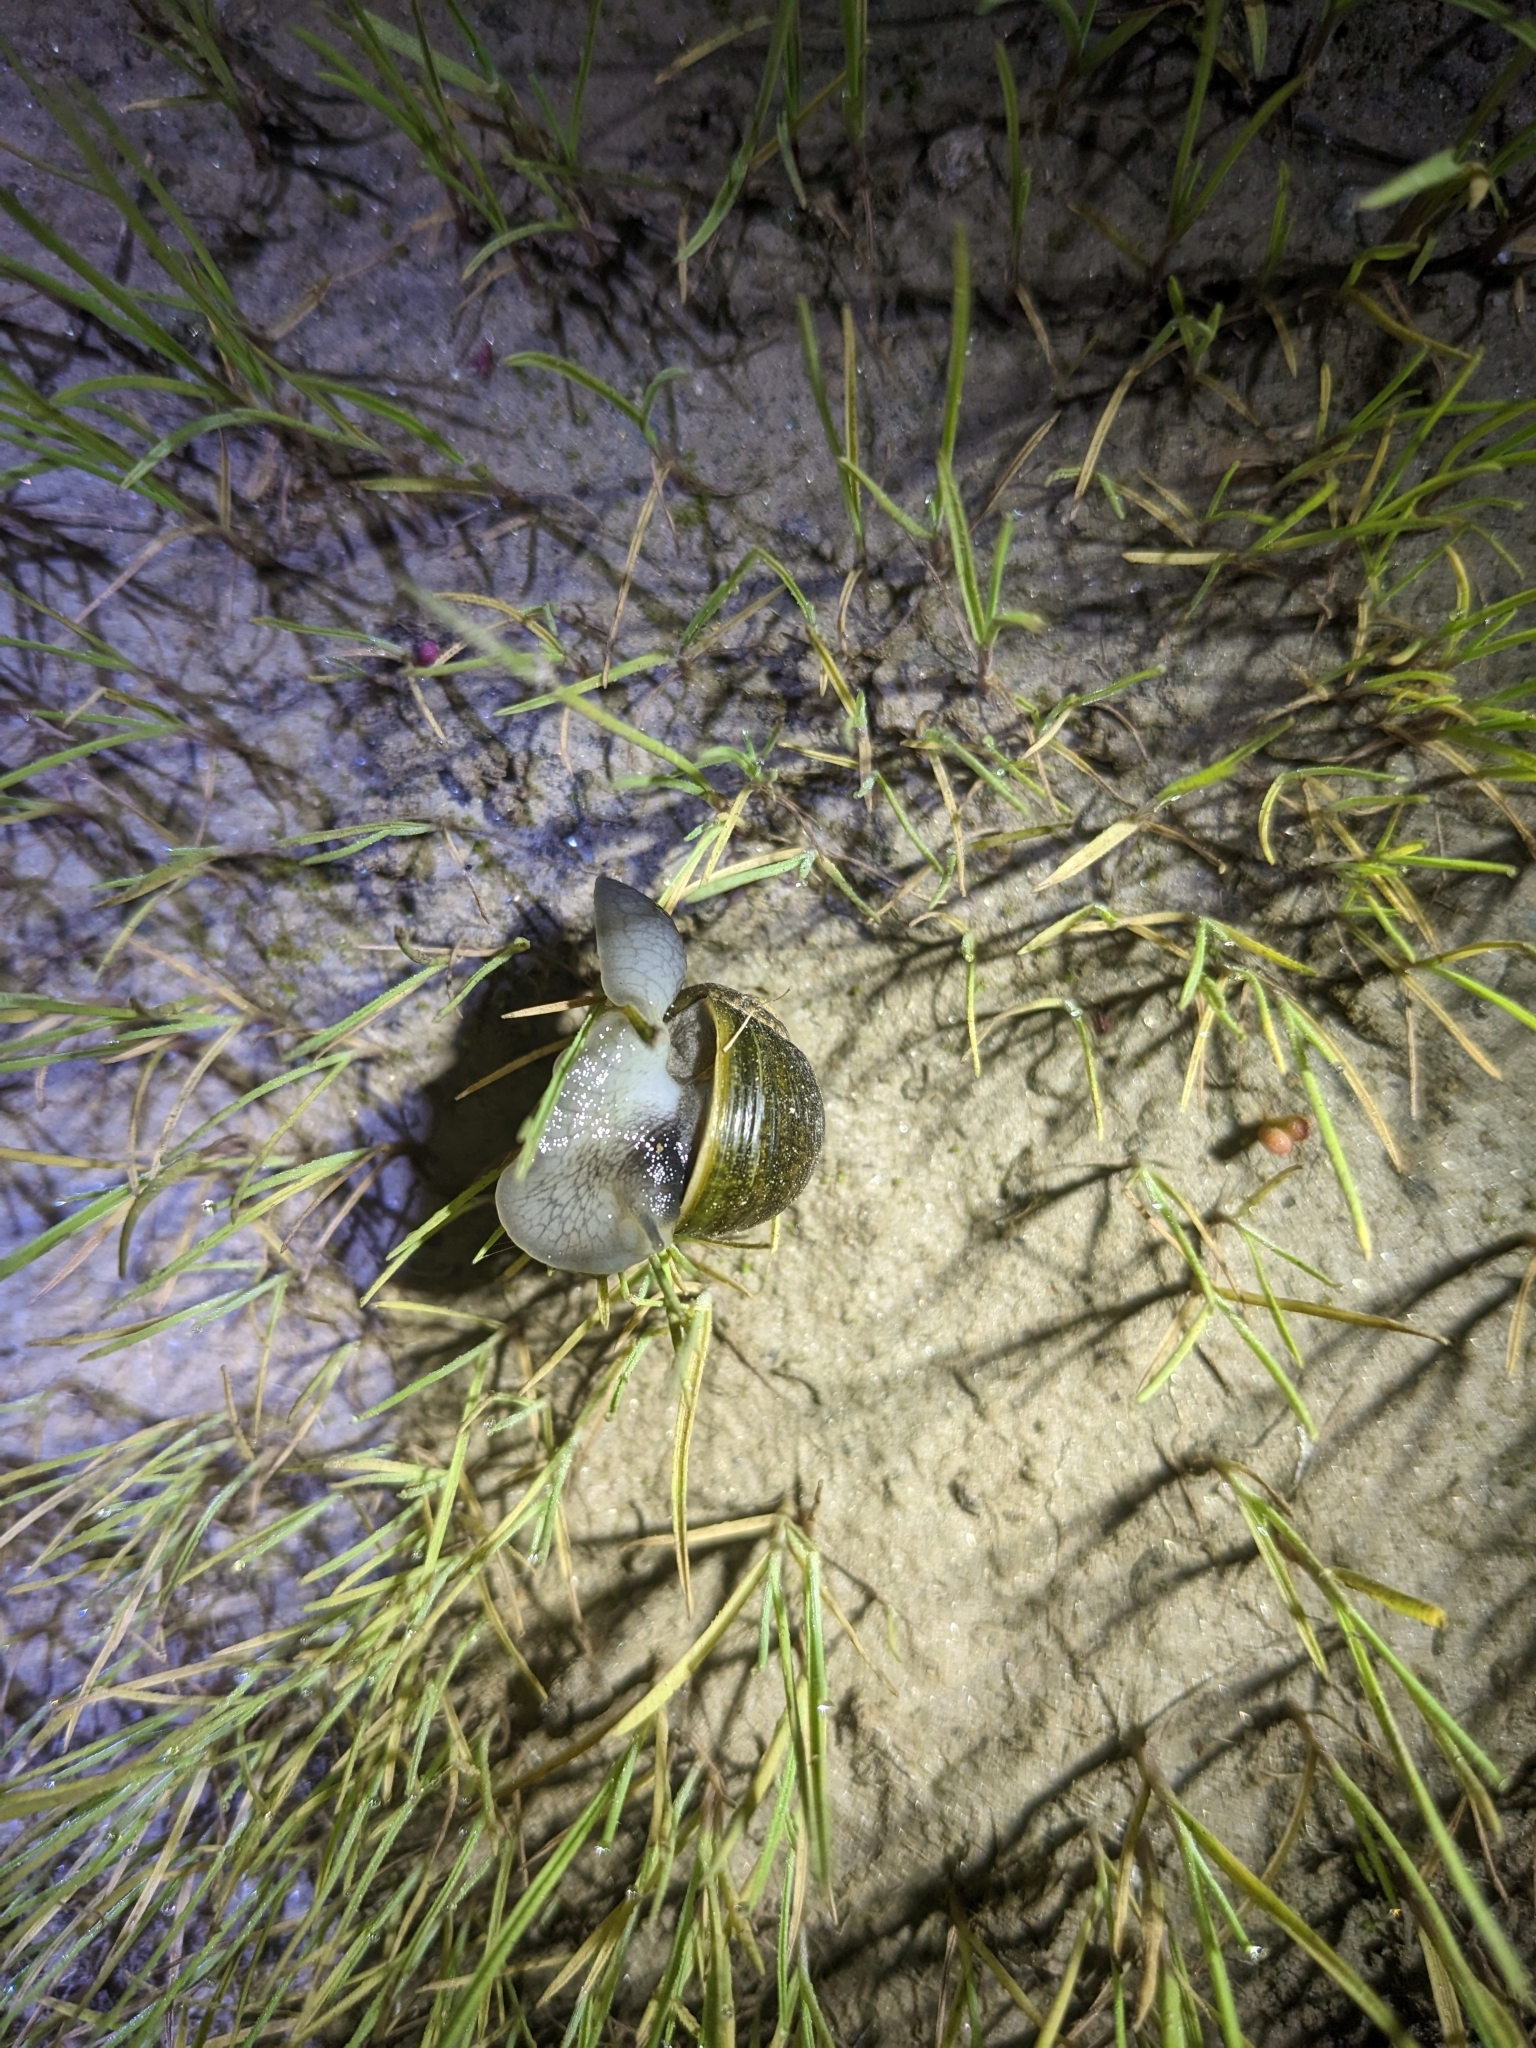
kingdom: Animalia
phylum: Mollusca
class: Gastropoda
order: Stylommatophora
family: Helicidae
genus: Cantareus
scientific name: Cantareus apertus
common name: Green gardensnail
